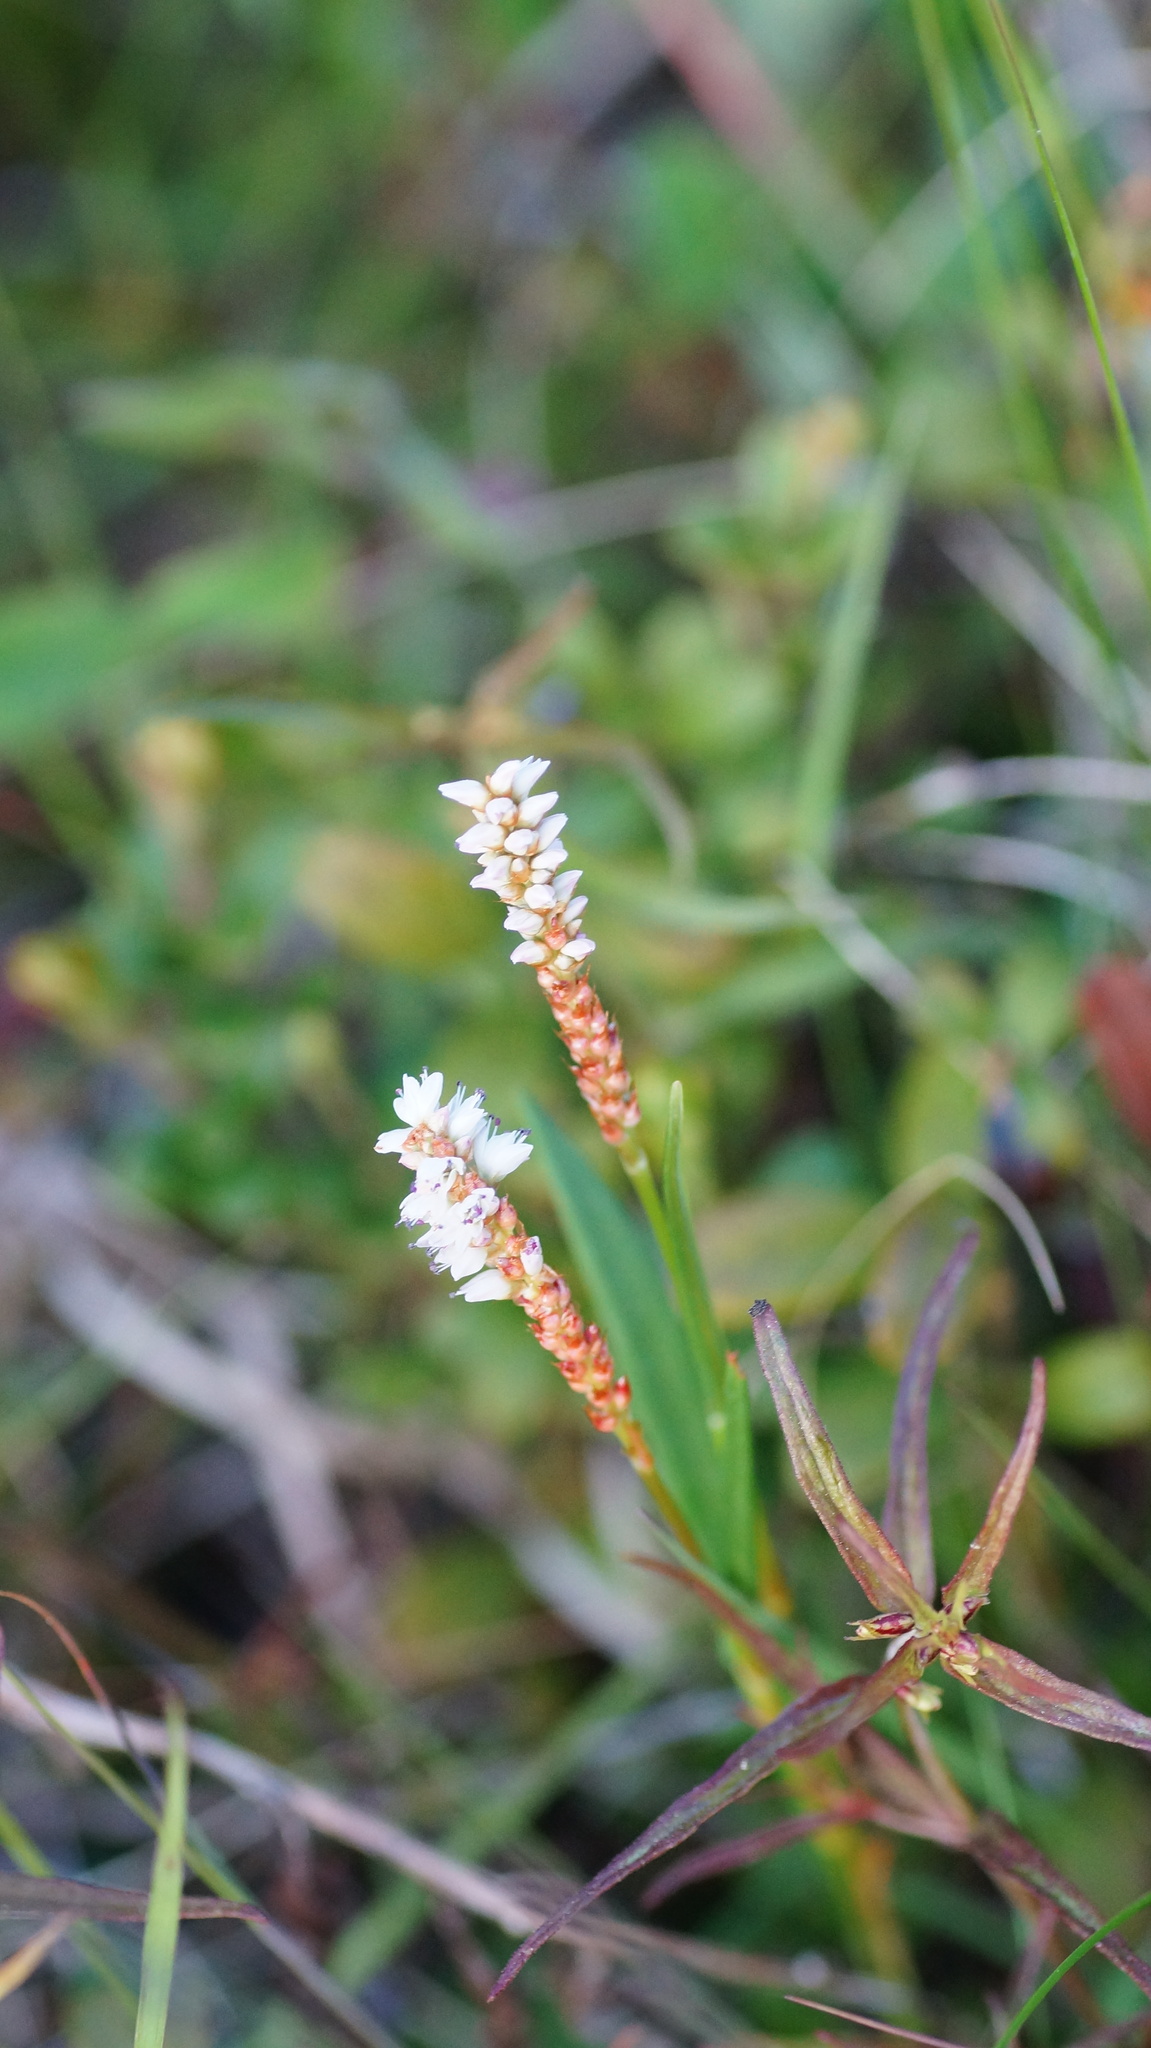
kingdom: Plantae
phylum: Tracheophyta
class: Magnoliopsida
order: Caryophyllales
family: Polygonaceae
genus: Bistorta
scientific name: Bistorta vivipara
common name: Alpine bistort
